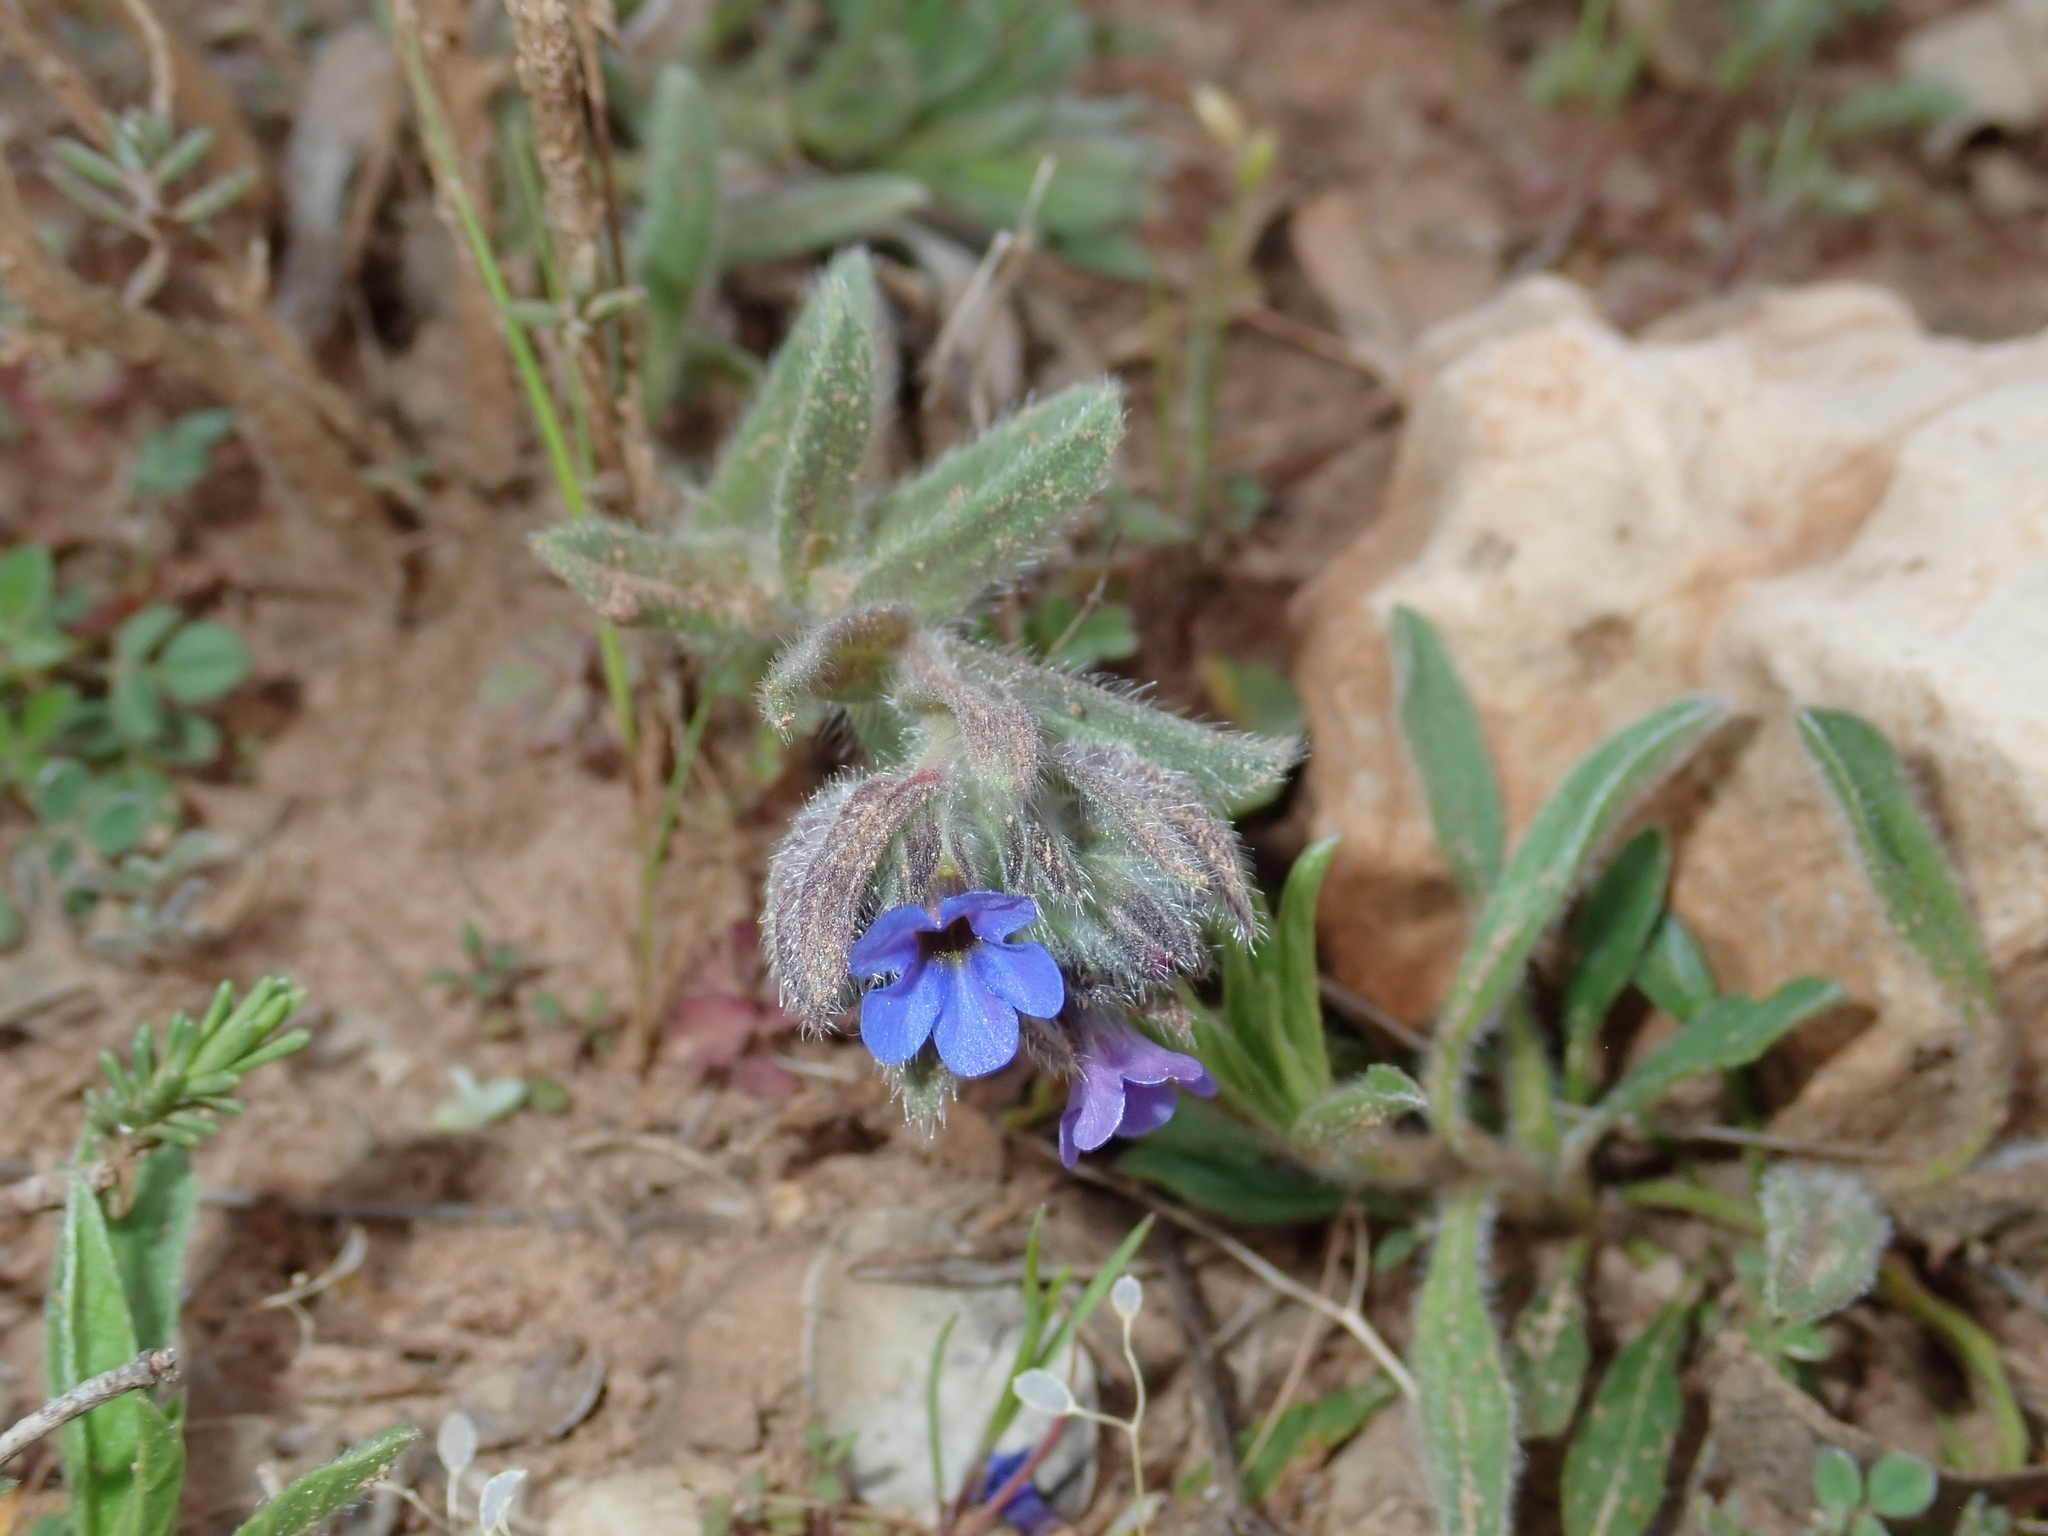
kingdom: Plantae
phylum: Tracheophyta
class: Magnoliopsida
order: Boraginales
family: Boraginaceae
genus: Alkanna
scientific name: Alkanna tinctoria
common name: Dyer's-alkanet
